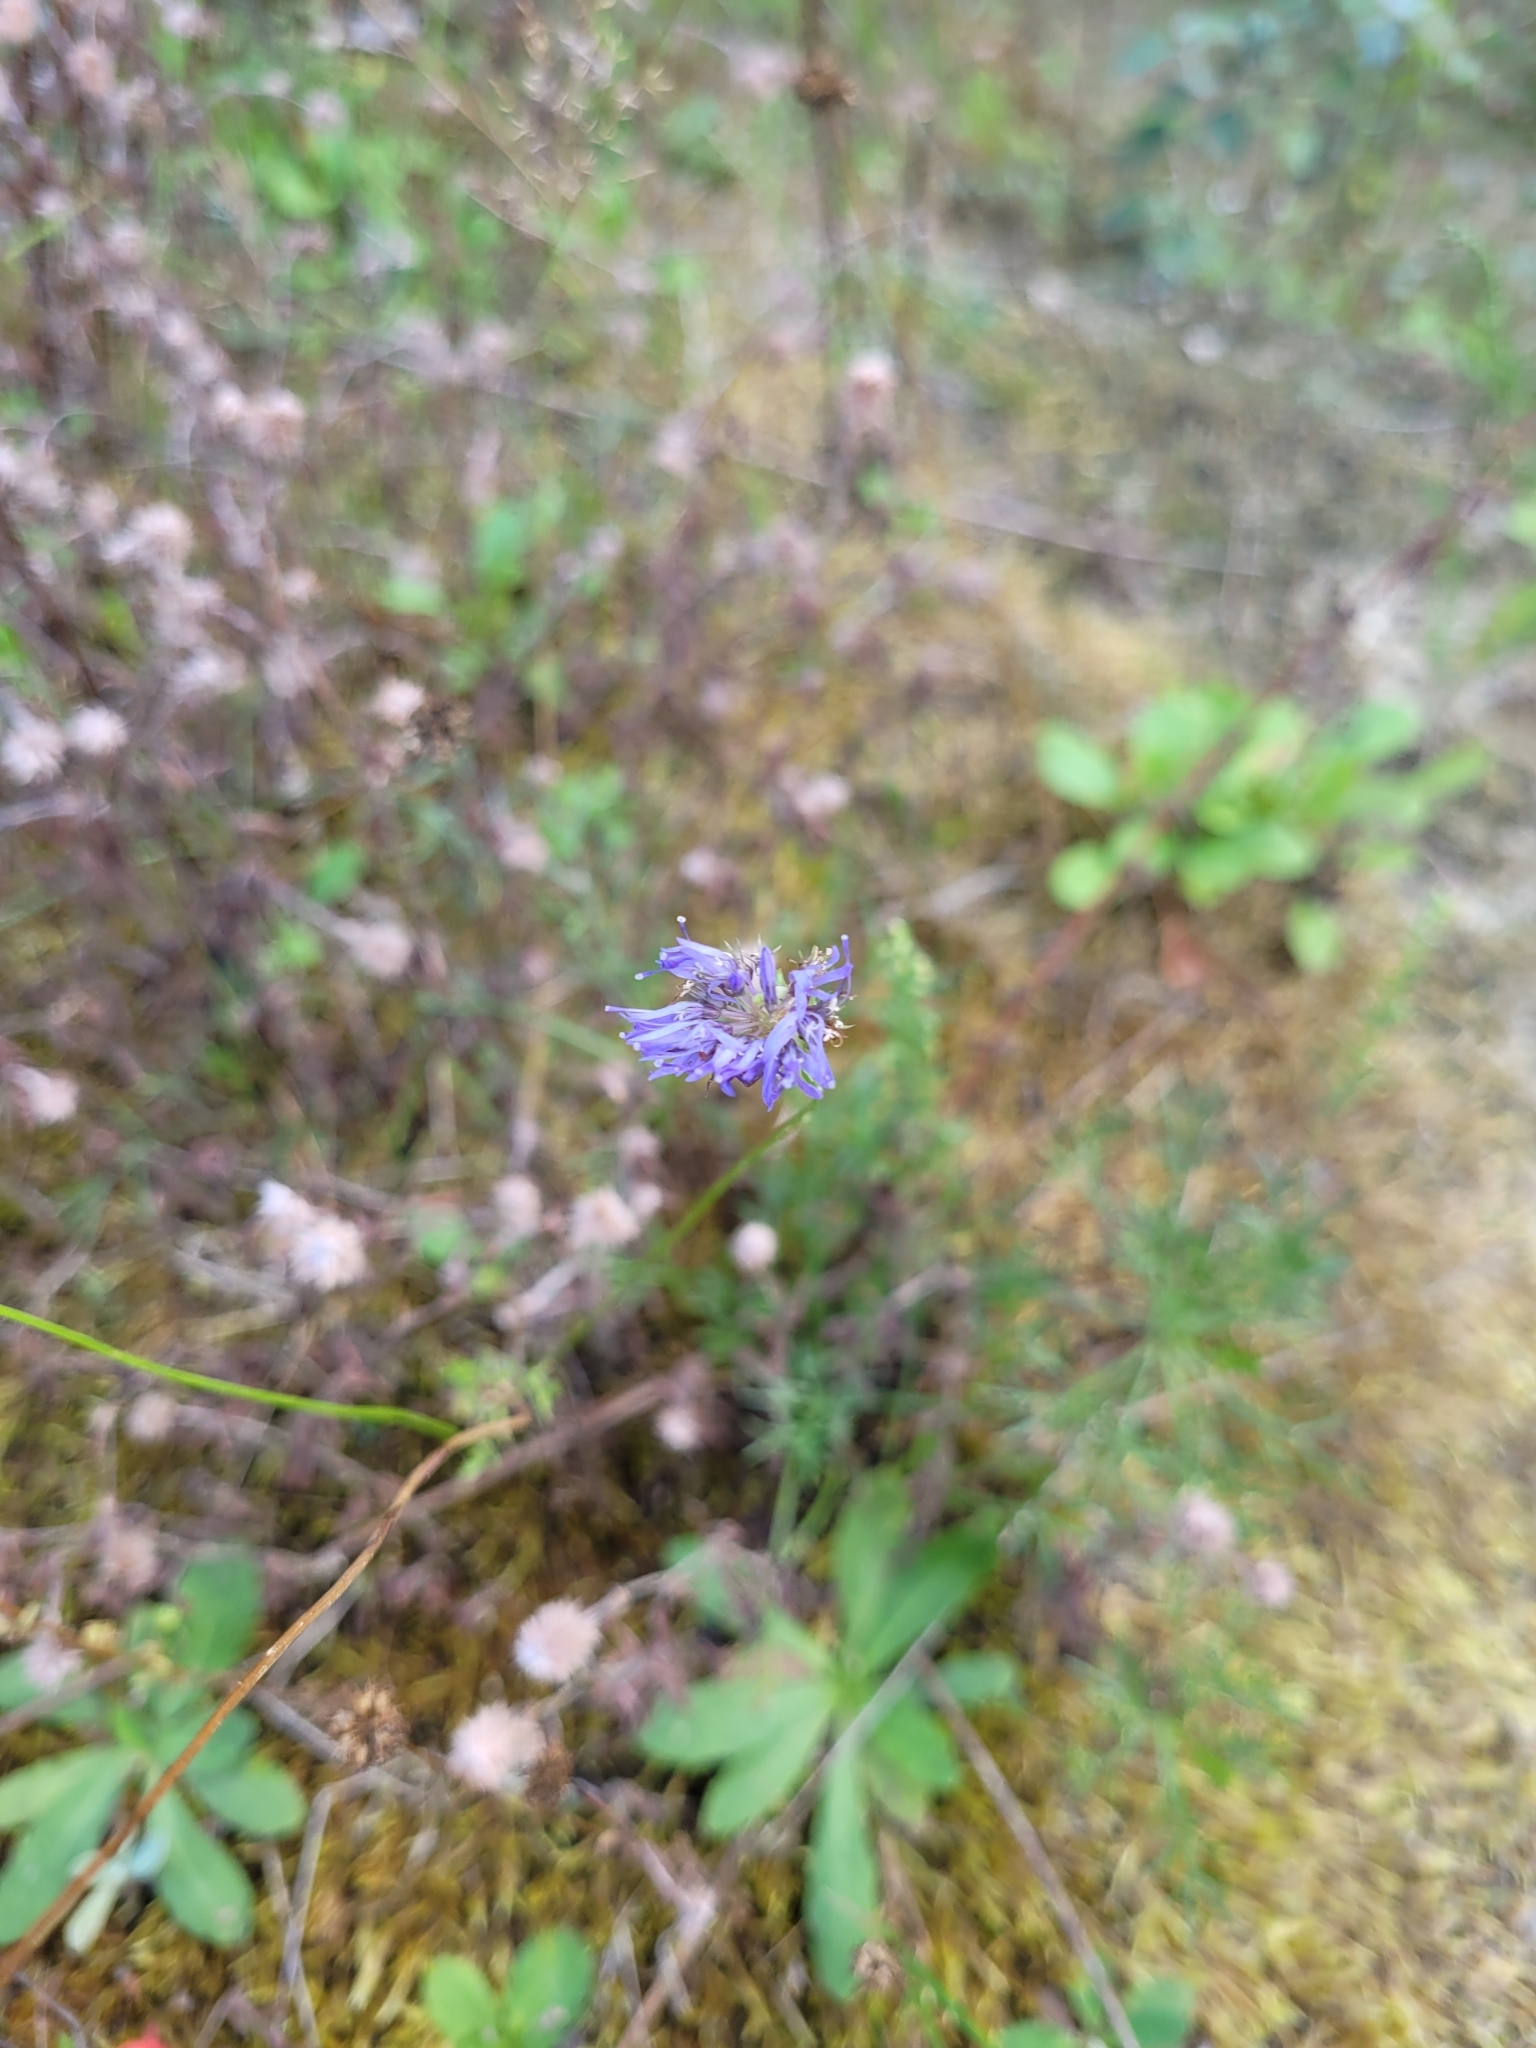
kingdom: Plantae
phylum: Tracheophyta
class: Magnoliopsida
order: Asterales
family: Campanulaceae
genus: Jasione
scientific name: Jasione montana
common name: Sheep's-bit
